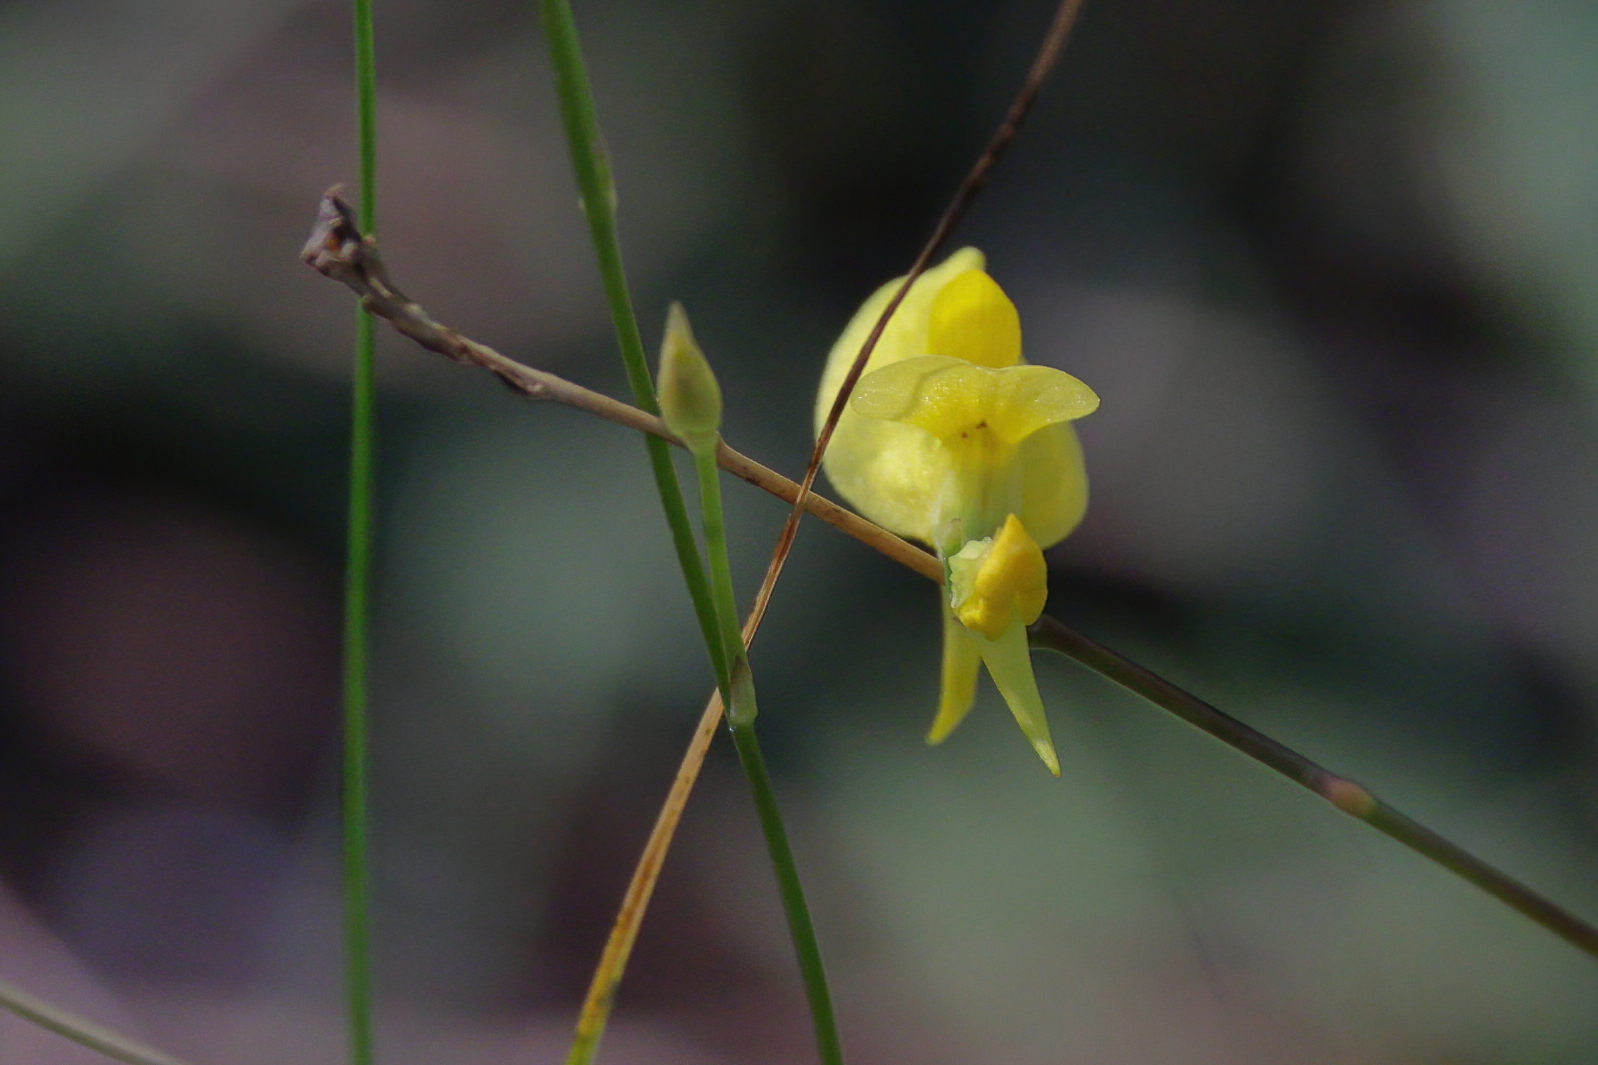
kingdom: Plantae
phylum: Tracheophyta
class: Magnoliopsida
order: Lamiales
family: Lentibulariaceae
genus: Utricularia
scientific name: Utricularia juncea
